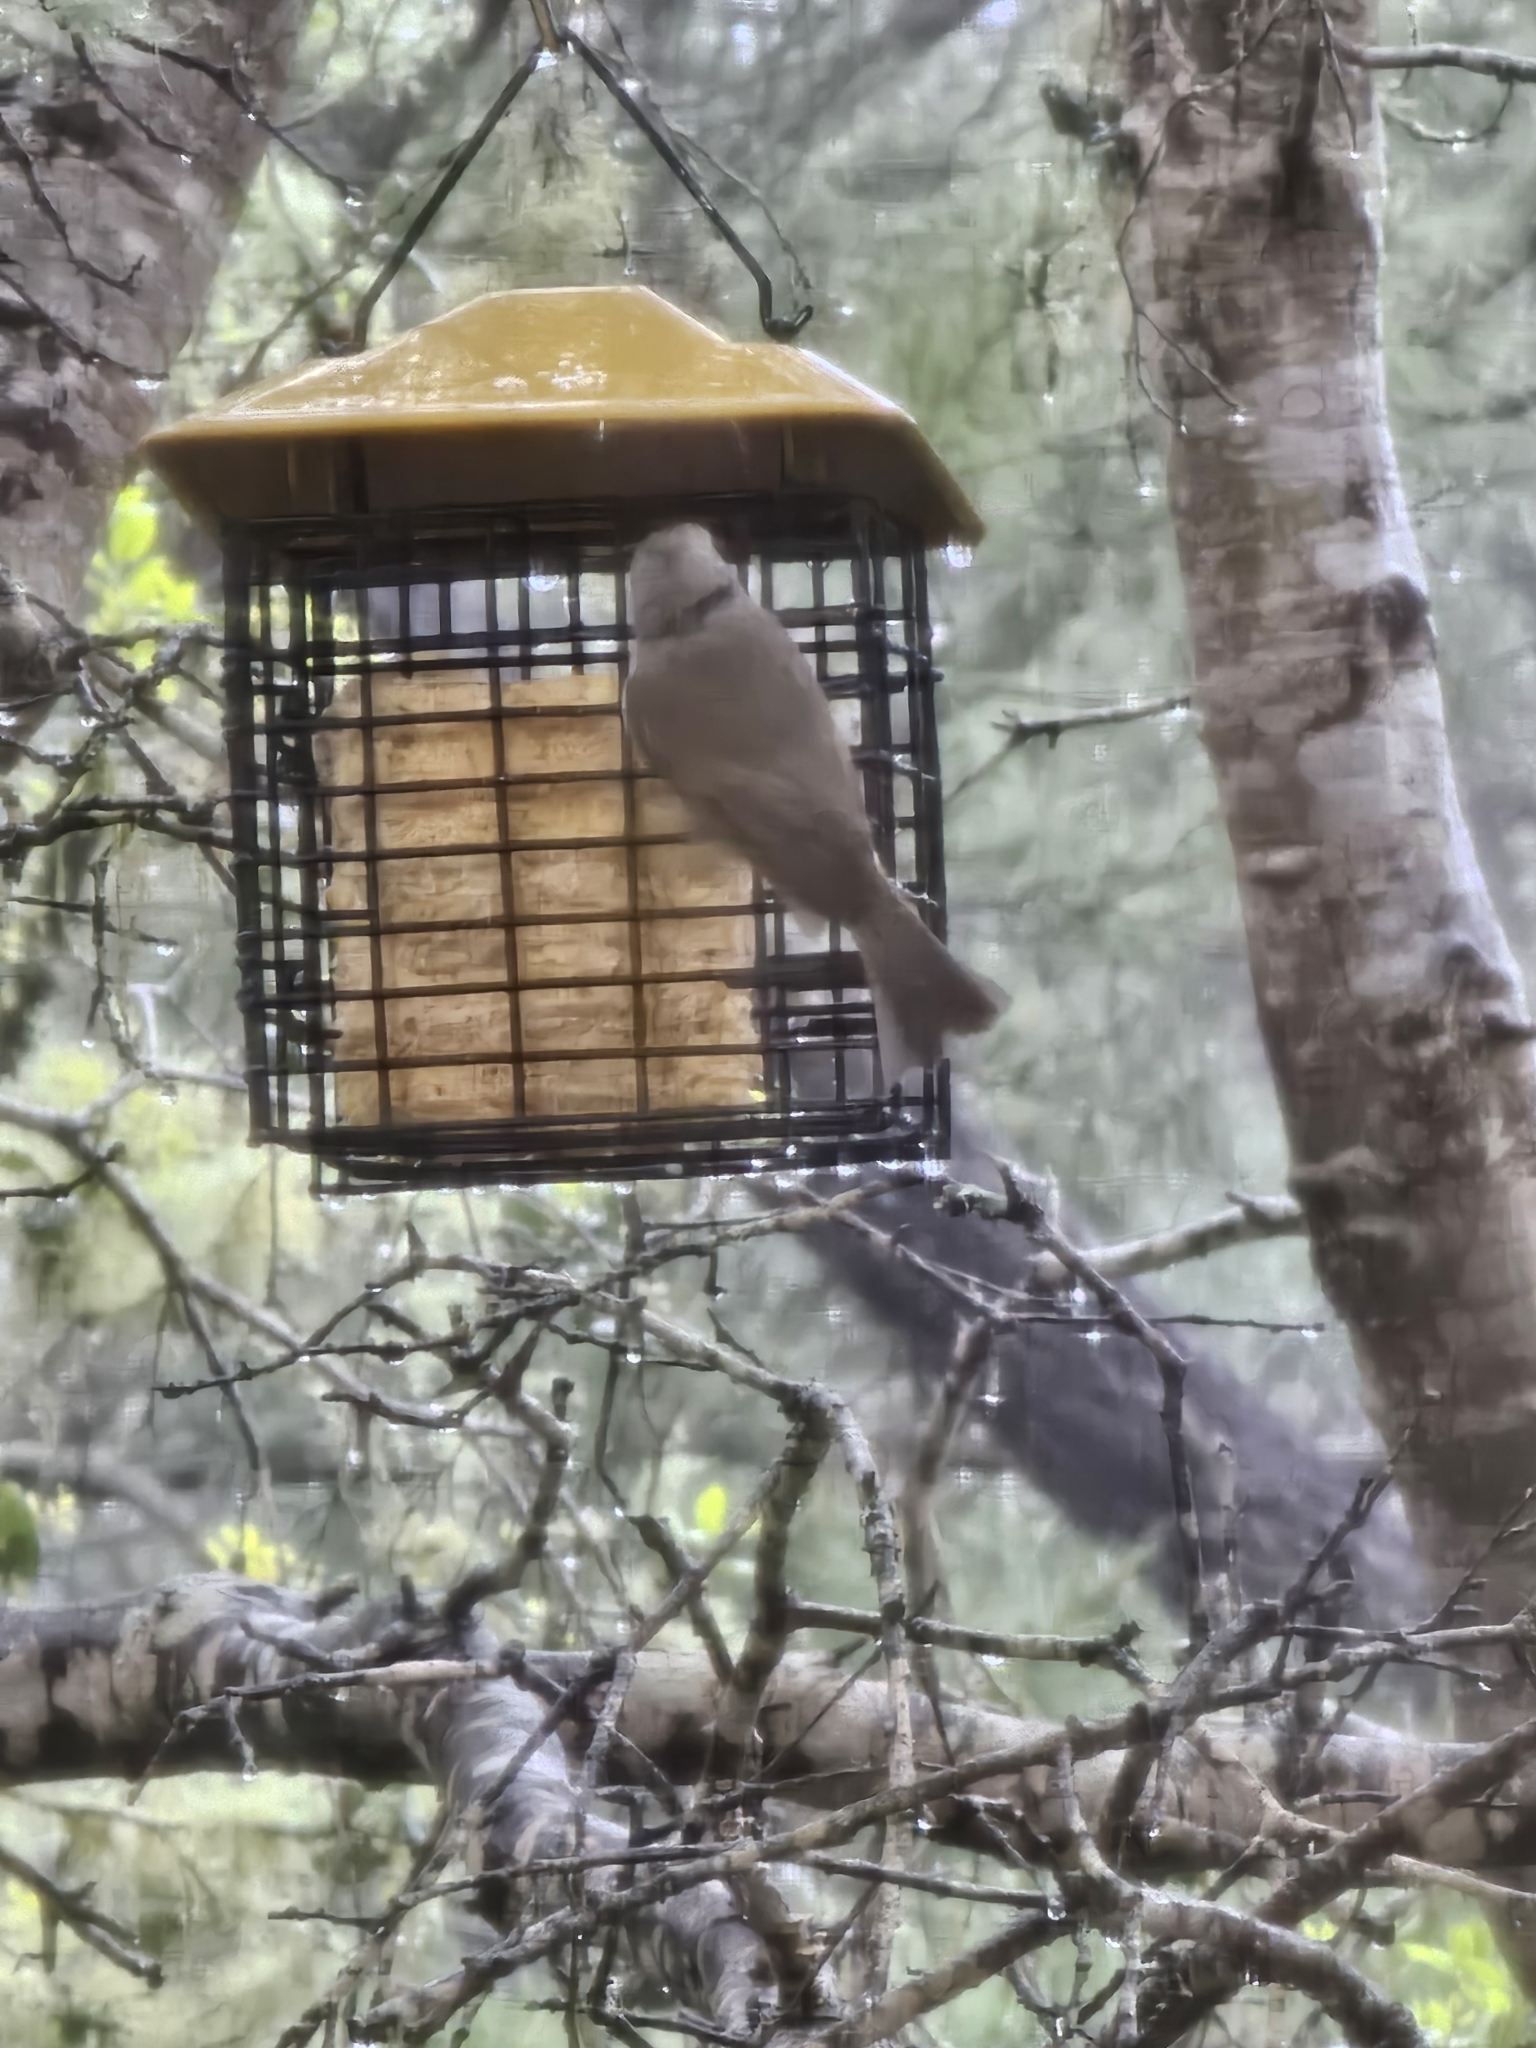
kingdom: Animalia
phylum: Chordata
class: Aves
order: Passeriformes
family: Paridae
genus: Baeolophus
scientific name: Baeolophus inornatus
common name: Oak titmouse
